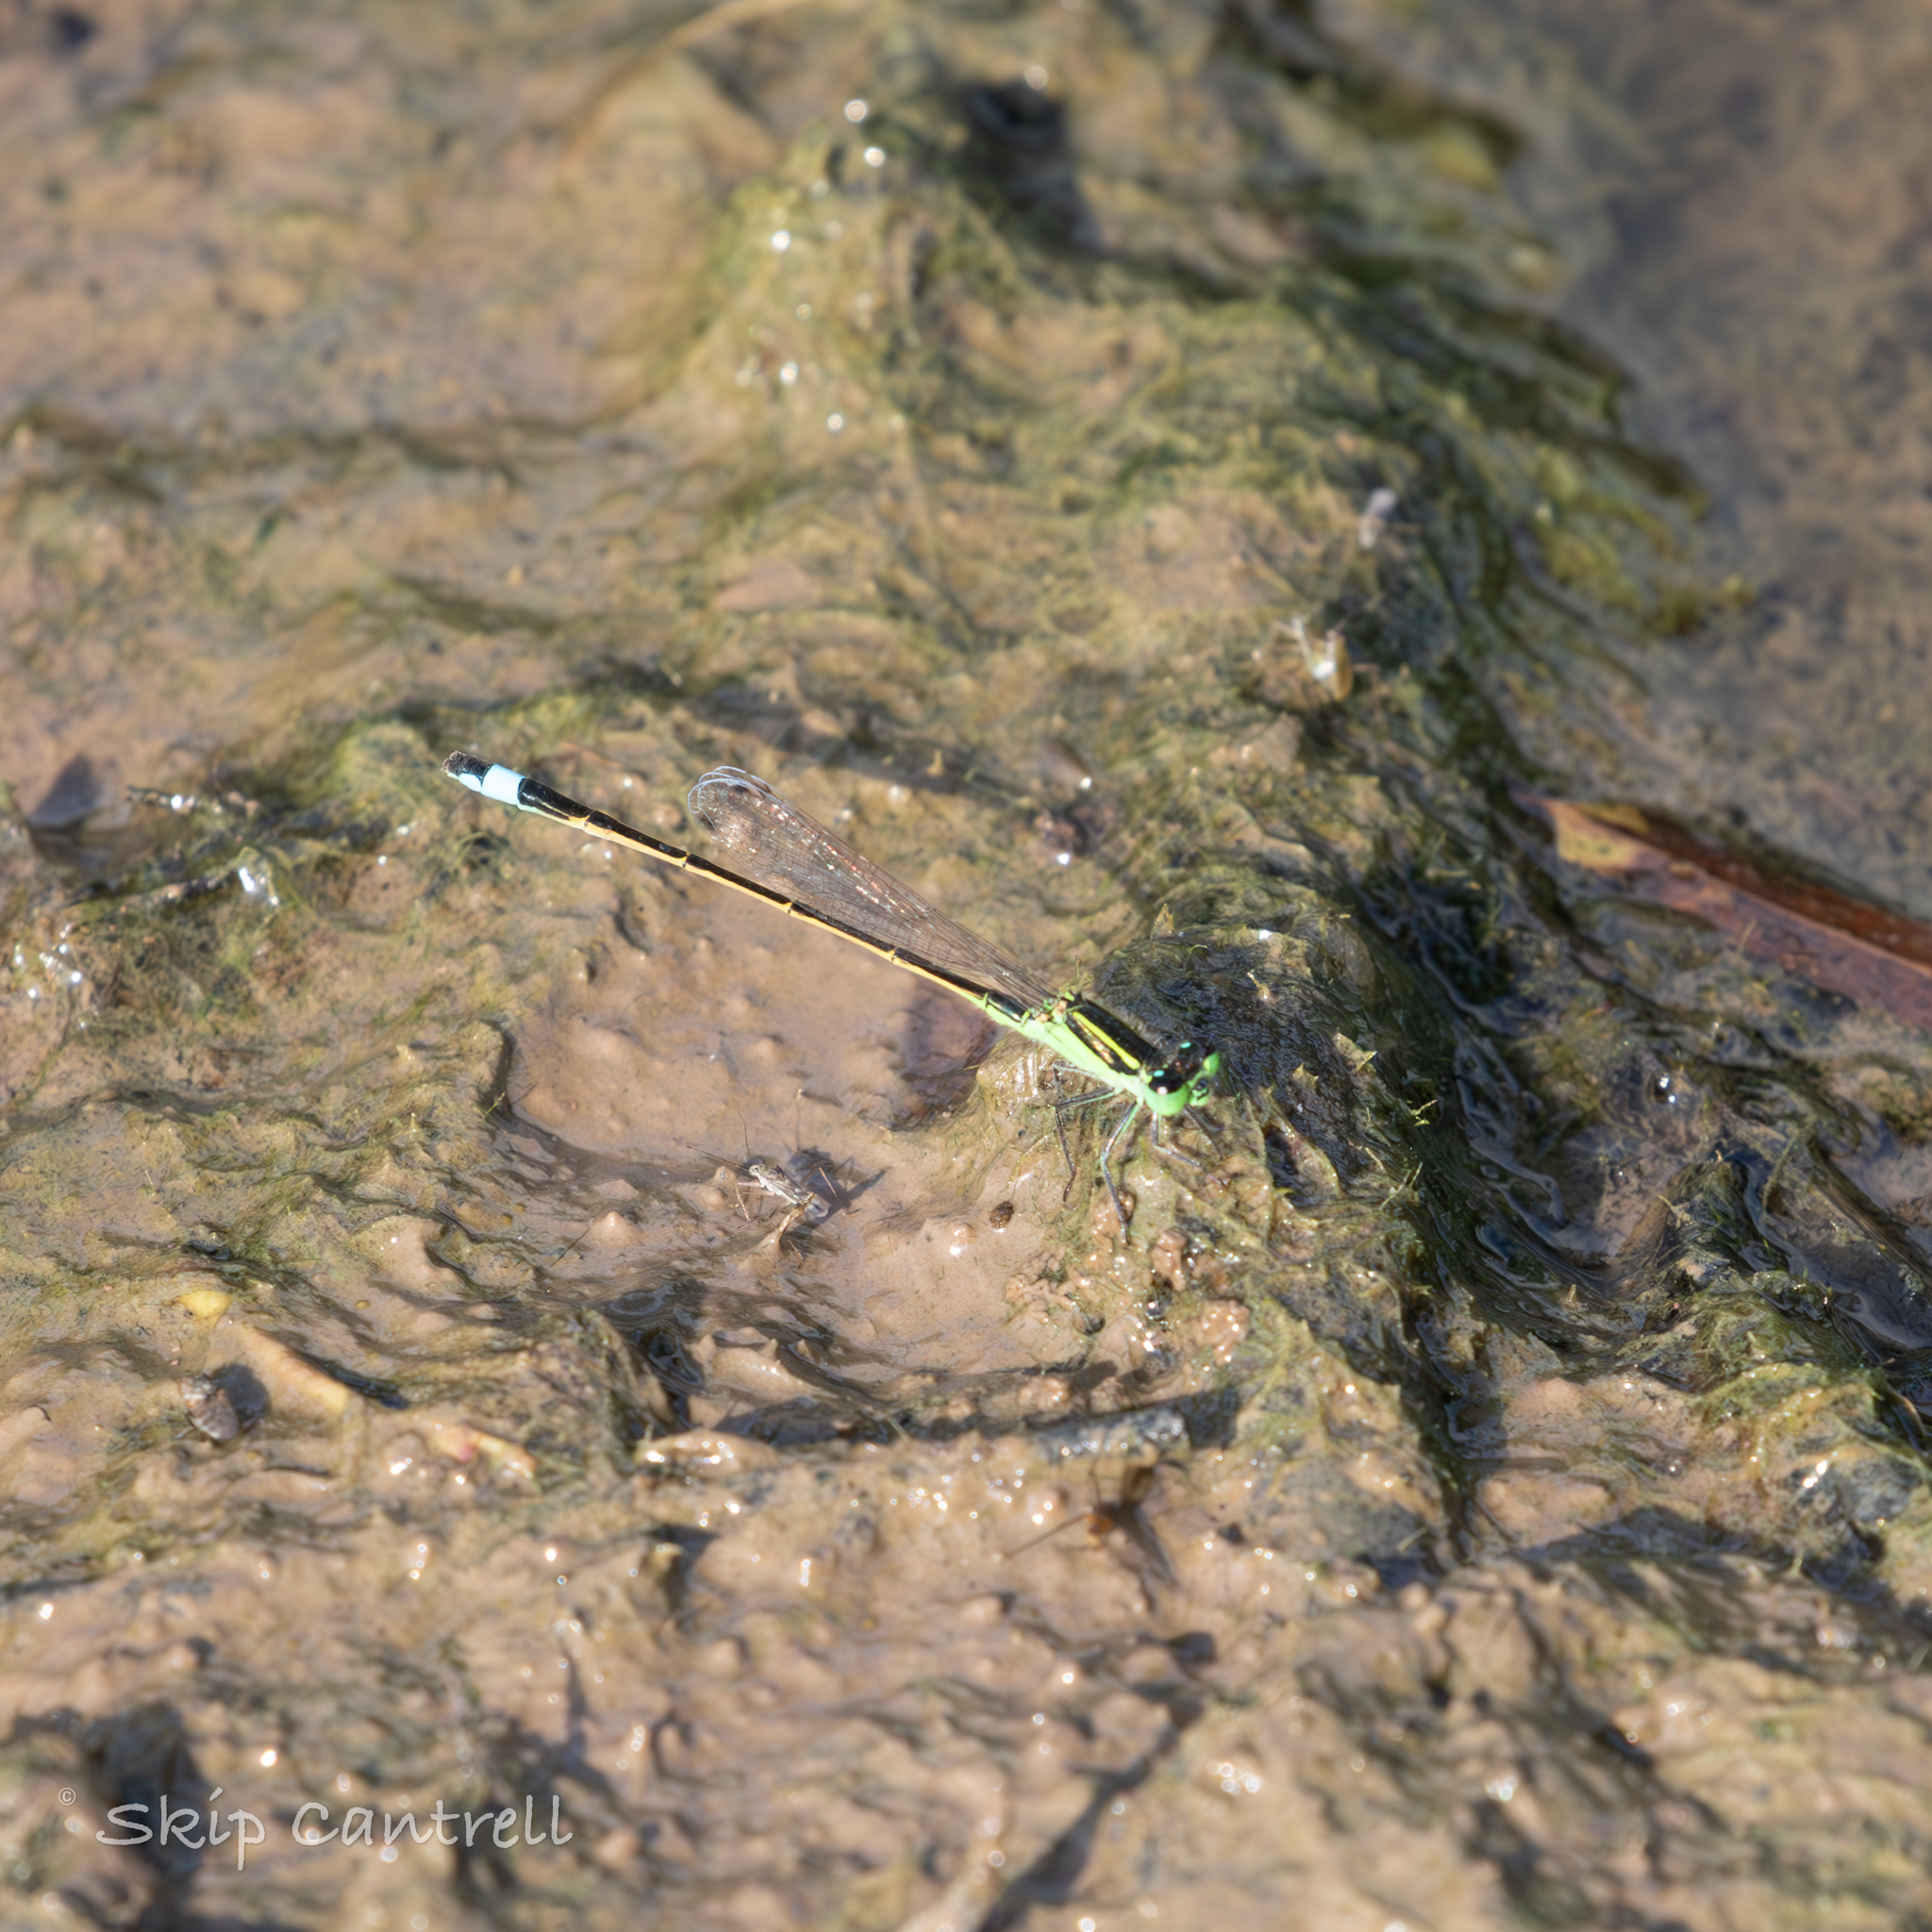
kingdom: Animalia
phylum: Arthropoda
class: Insecta
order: Odonata
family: Coenagrionidae
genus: Ischnura
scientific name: Ischnura ramburii
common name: Rambur's forktail
